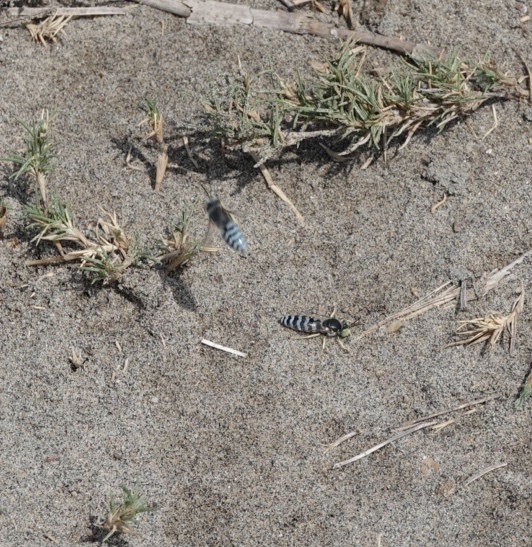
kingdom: Animalia
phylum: Arthropoda
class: Insecta
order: Hymenoptera
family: Crabronidae
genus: Bembix
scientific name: Bembix americana
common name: American sand wasp
